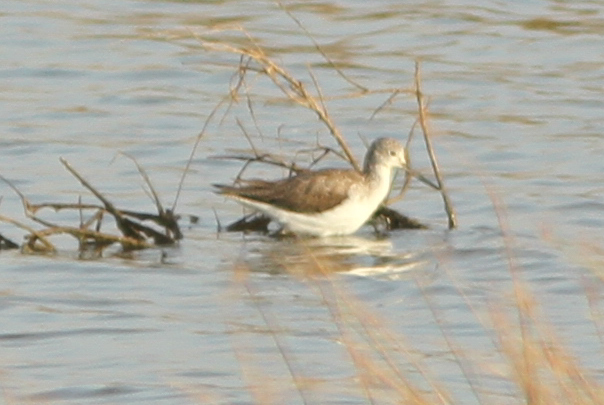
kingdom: Animalia
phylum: Chordata
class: Aves
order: Charadriiformes
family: Scolopacidae
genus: Tringa
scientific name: Tringa nebularia
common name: Common greenshank
